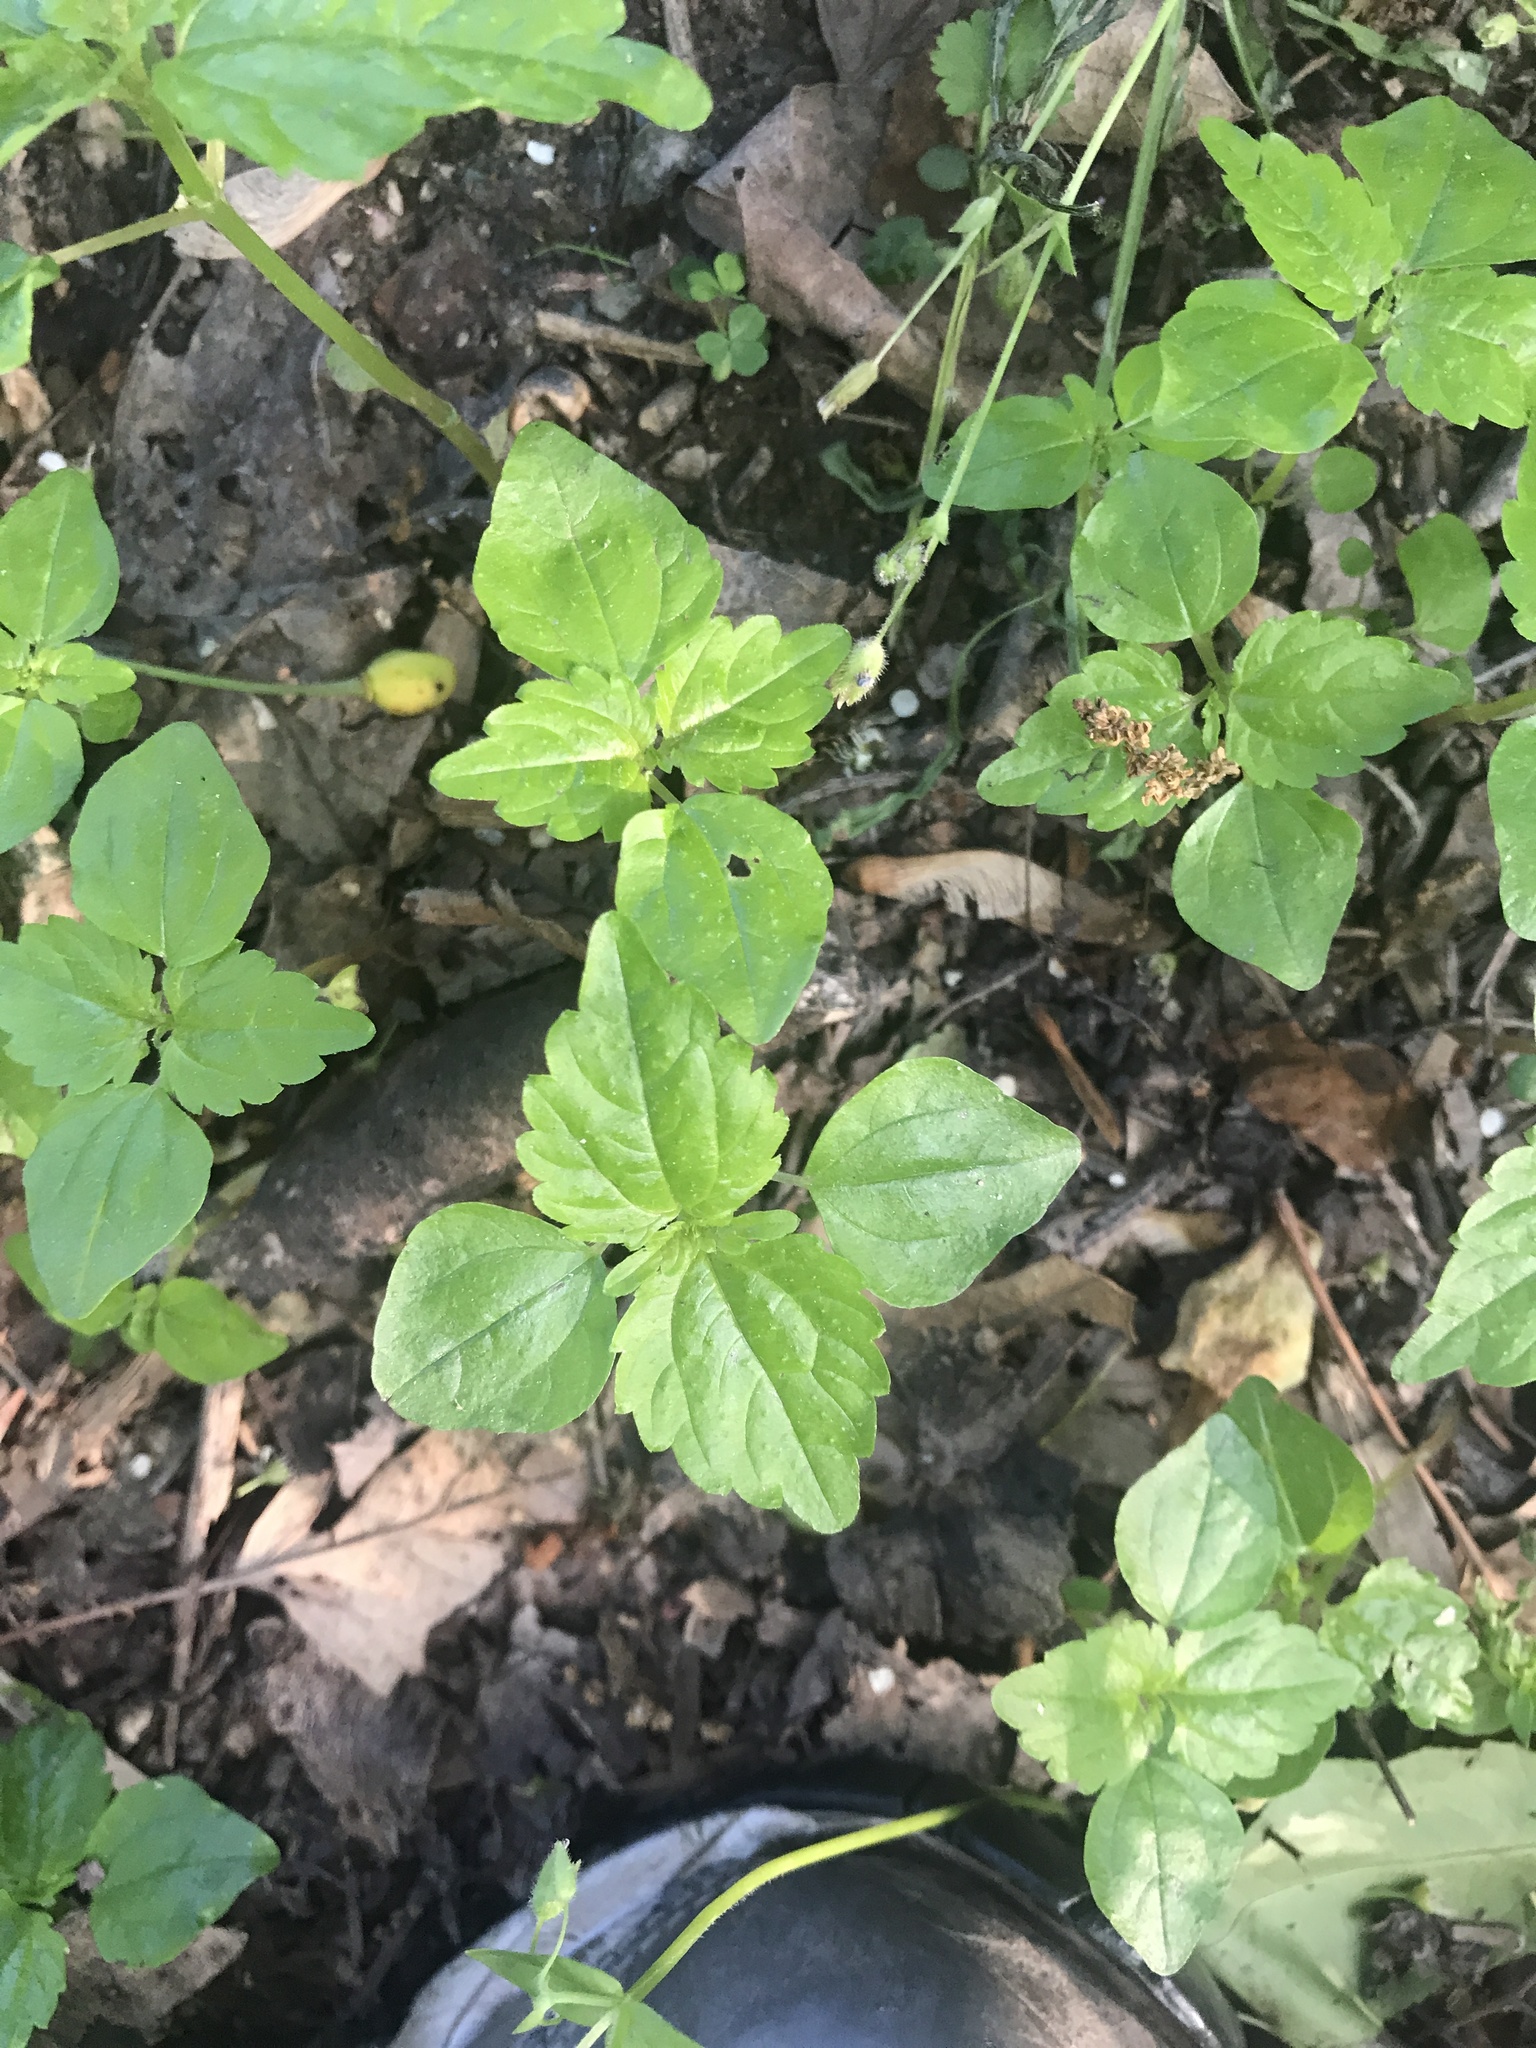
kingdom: Plantae
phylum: Tracheophyta
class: Magnoliopsida
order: Rosales
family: Urticaceae
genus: Pilea
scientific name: Pilea pumila
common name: Clearweed
